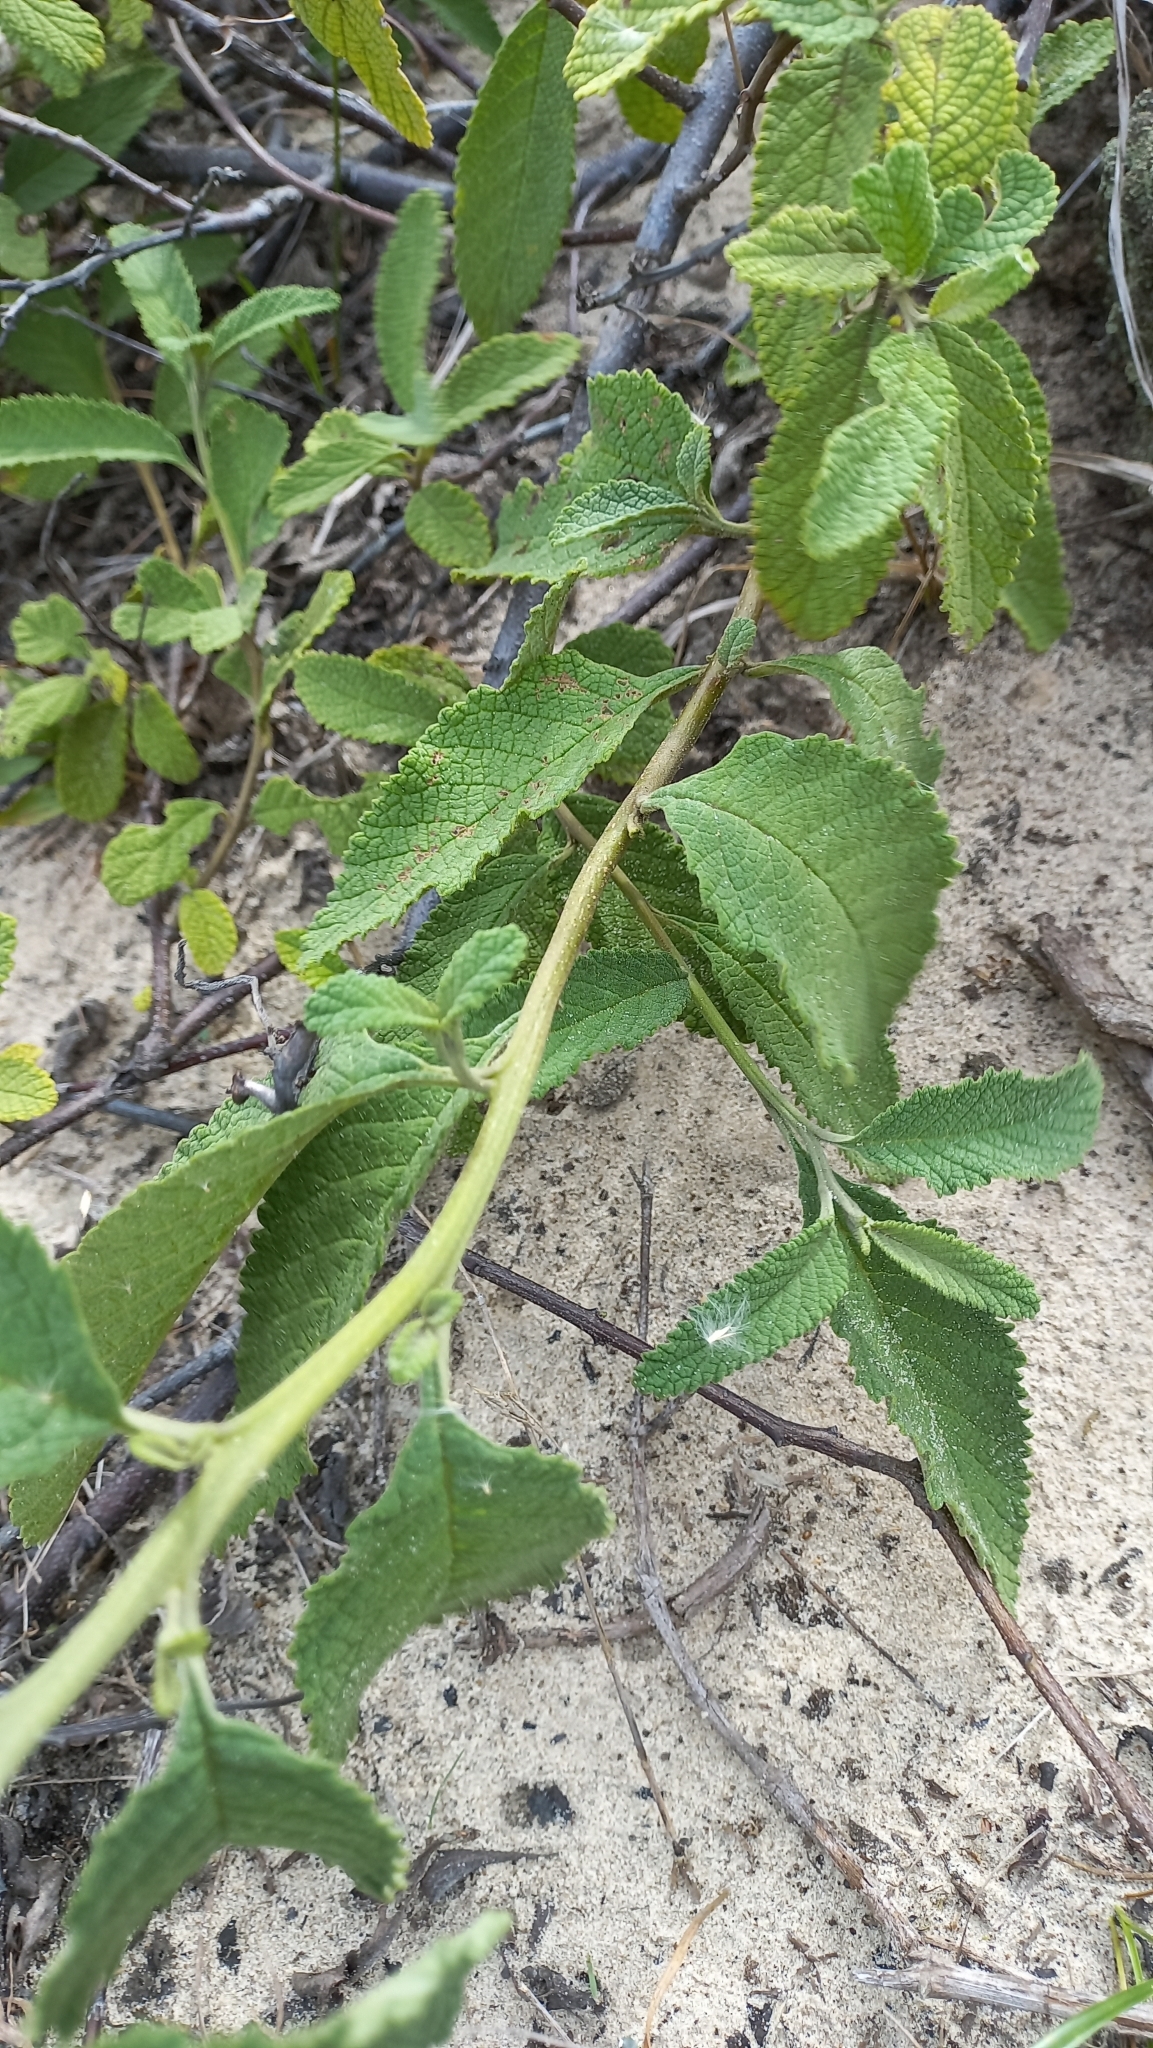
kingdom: Plantae
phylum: Tracheophyta
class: Magnoliopsida
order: Boraginales
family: Cordiaceae
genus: Varronia
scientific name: Varronia curassavica
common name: Black sage
